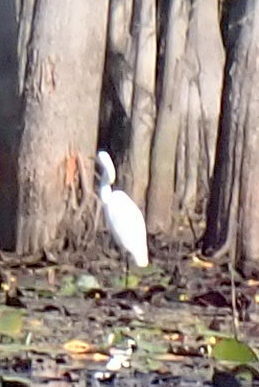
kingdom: Animalia
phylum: Chordata
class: Aves
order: Pelecaniformes
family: Ardeidae
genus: Ardea
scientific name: Ardea alba
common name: Great egret
